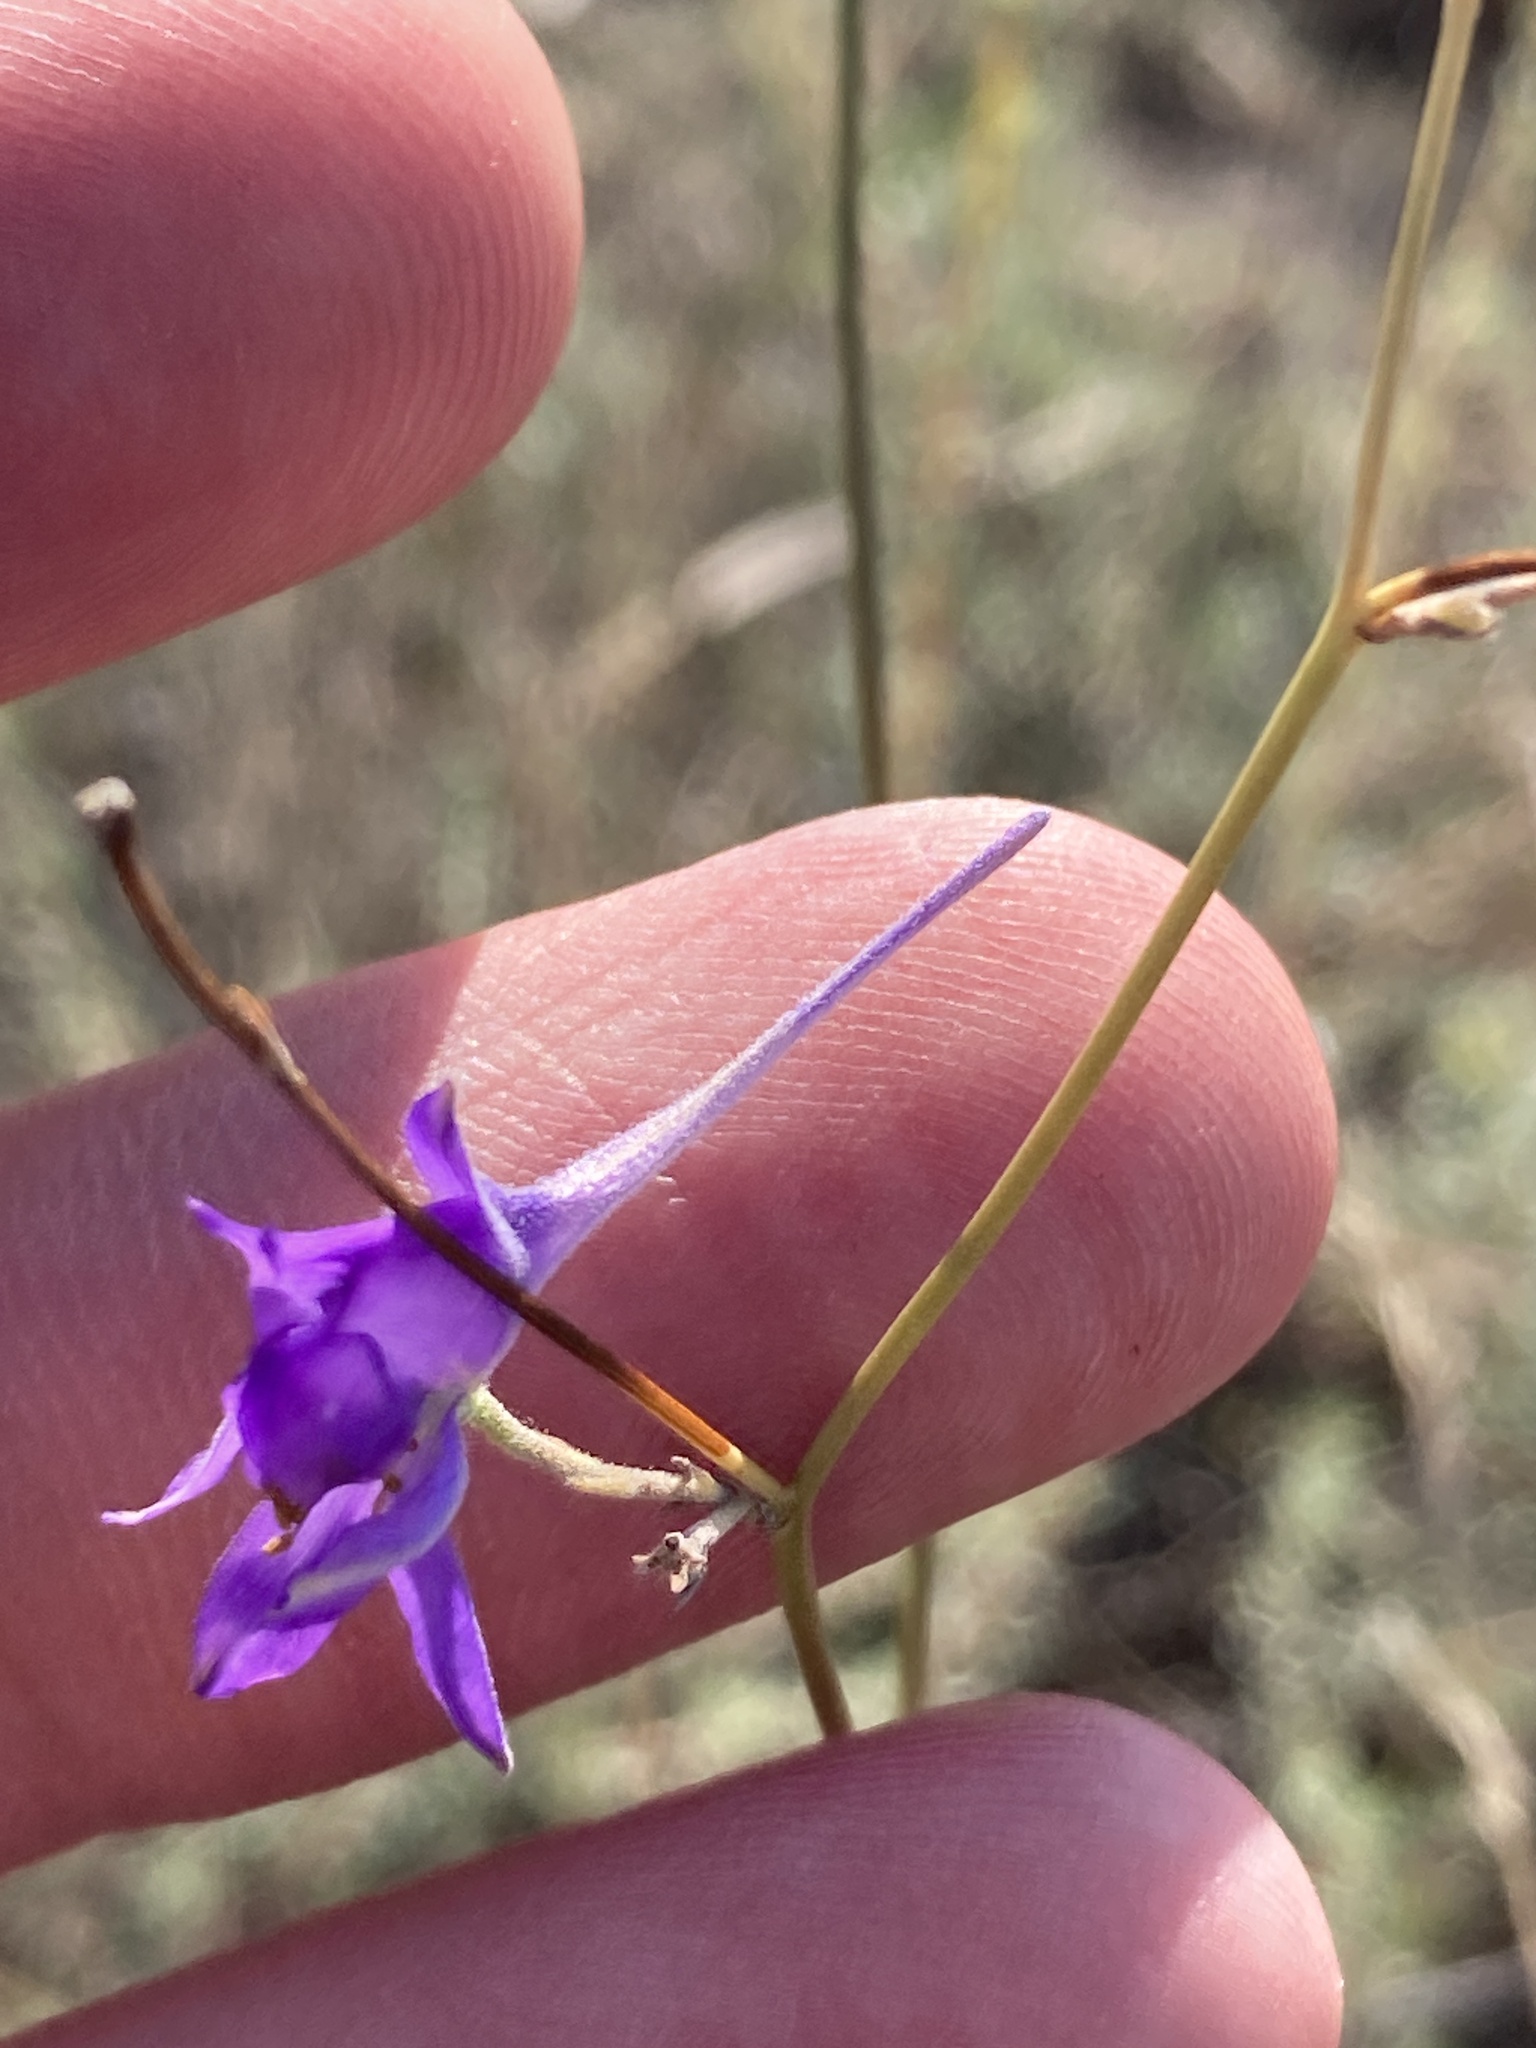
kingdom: Plantae
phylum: Tracheophyta
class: Magnoliopsida
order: Ranunculales
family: Ranunculaceae
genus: Delphinium
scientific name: Delphinium consolida
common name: Branching larkspur
